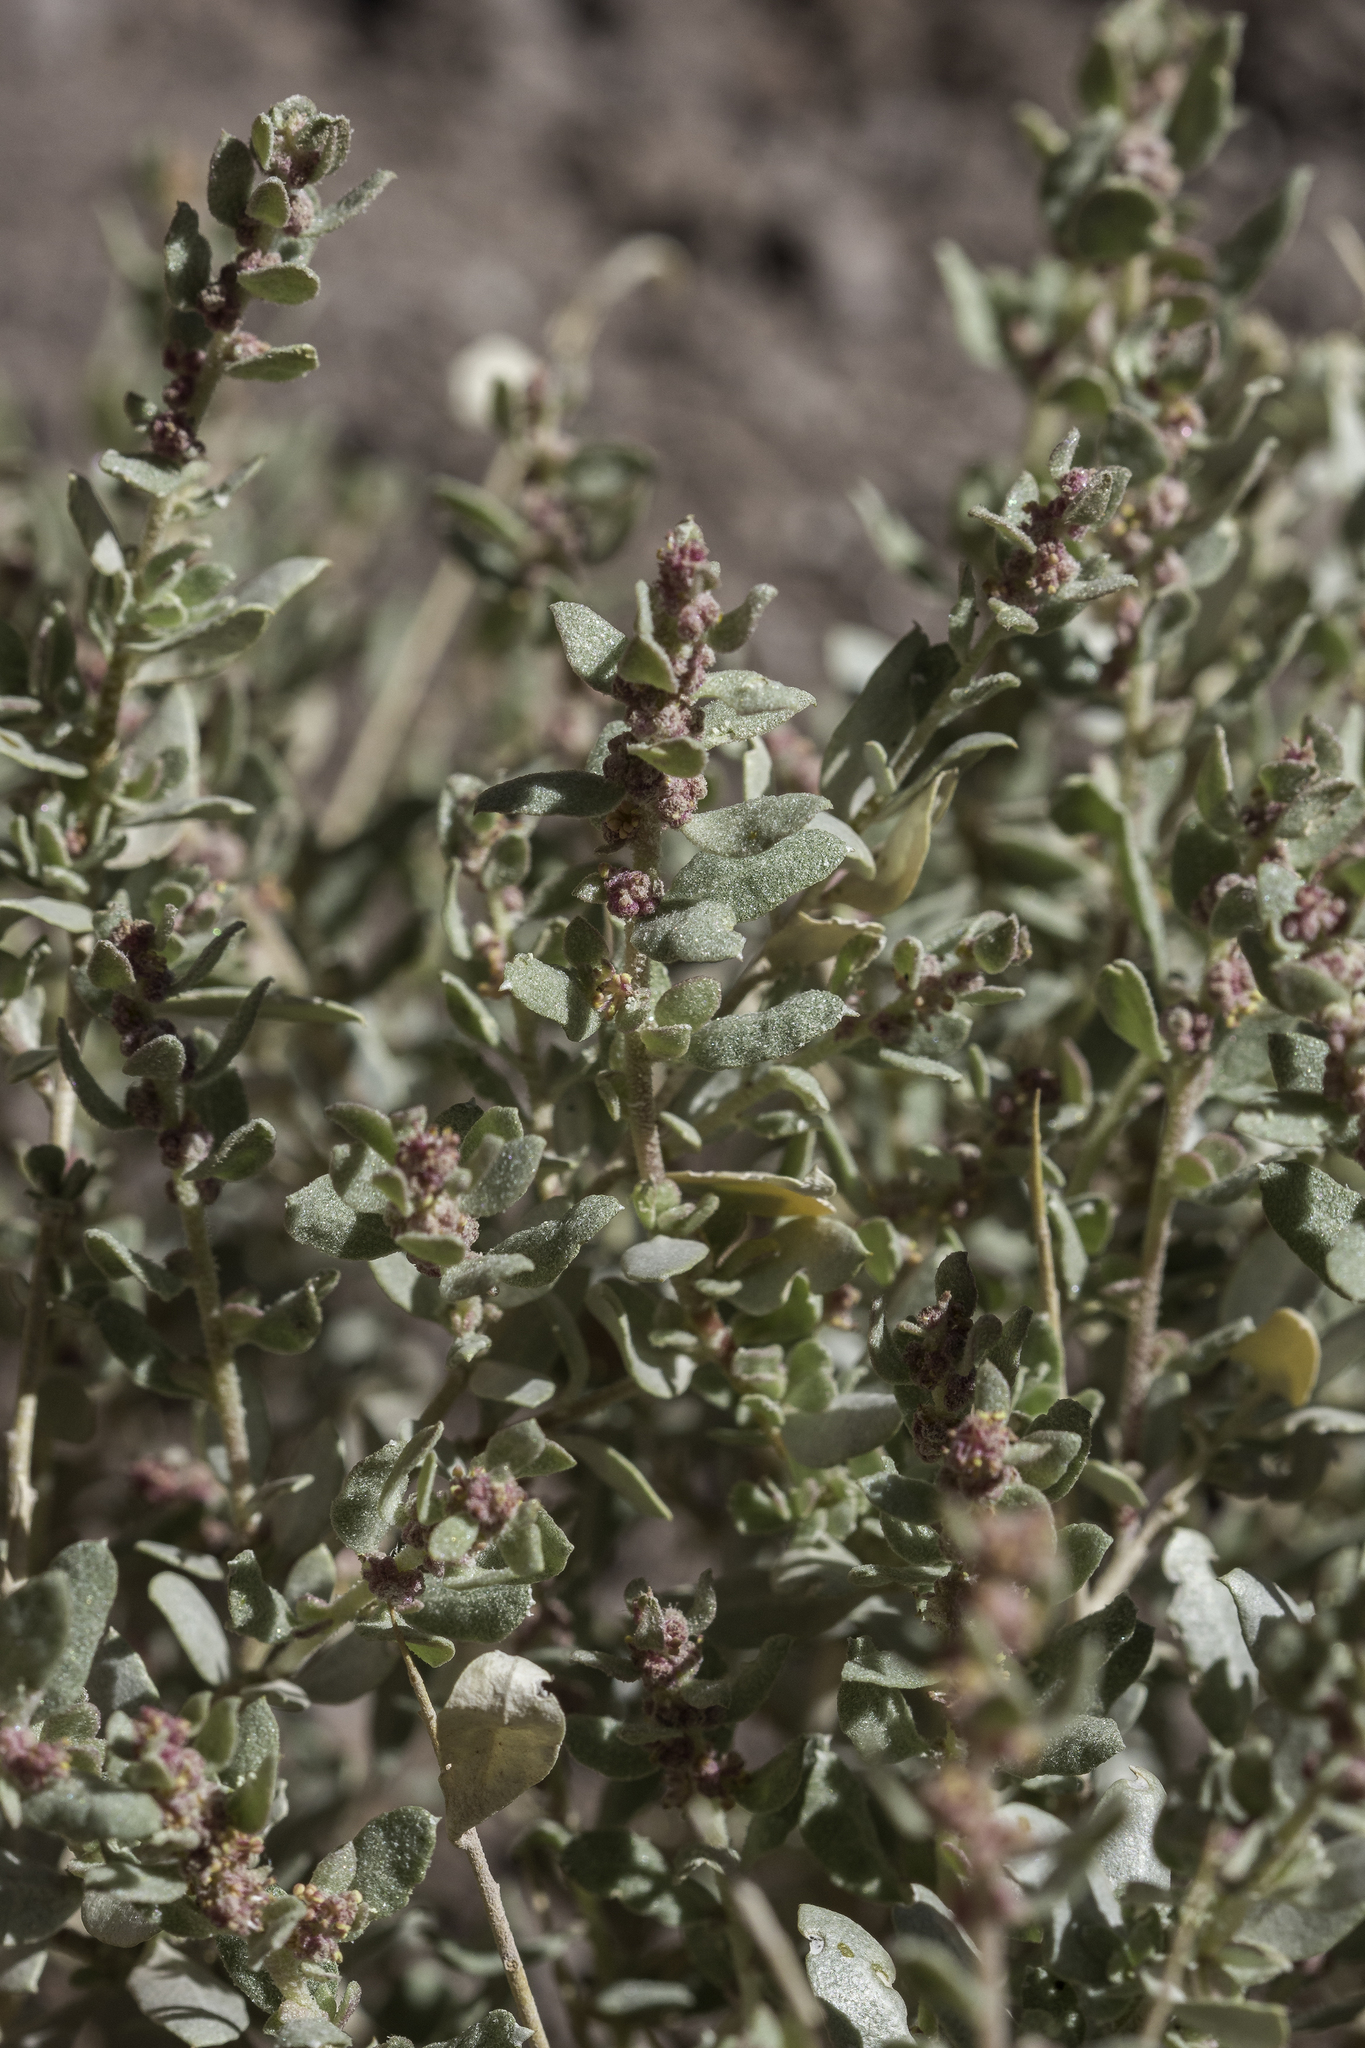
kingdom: Plantae
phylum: Tracheophyta
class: Magnoliopsida
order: Caryophyllales
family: Amaranthaceae
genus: Atriplex
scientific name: Atriplex obovata
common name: New mexico saltbush
